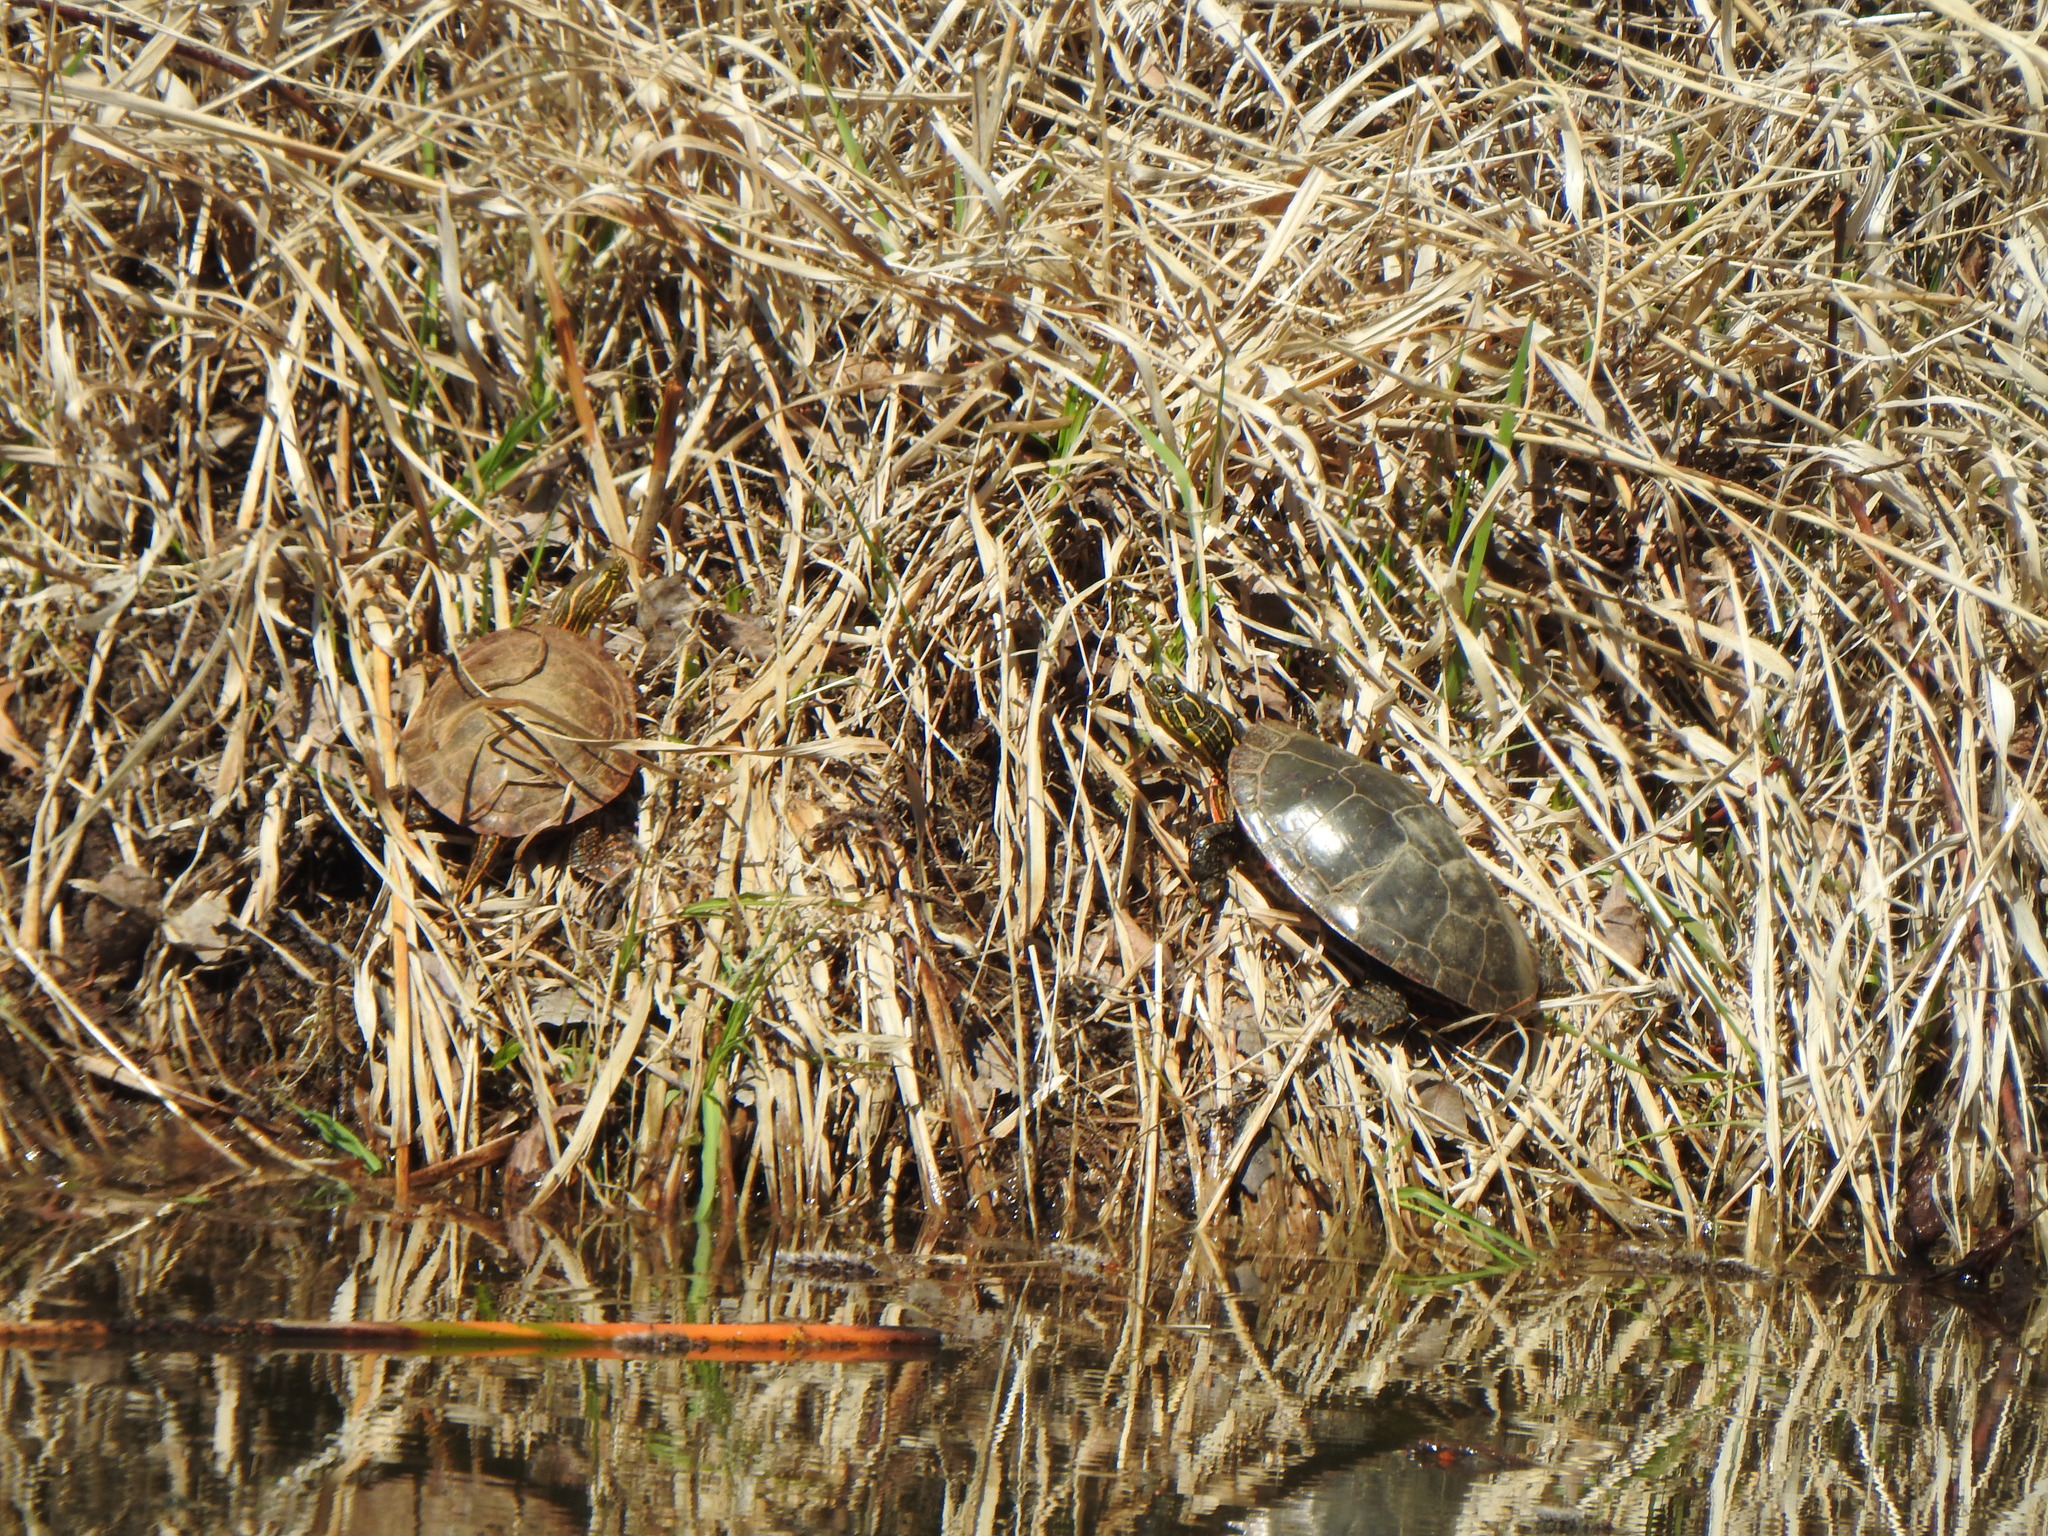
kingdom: Animalia
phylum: Chordata
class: Testudines
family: Emydidae
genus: Chrysemys
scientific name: Chrysemys picta
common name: Painted turtle
